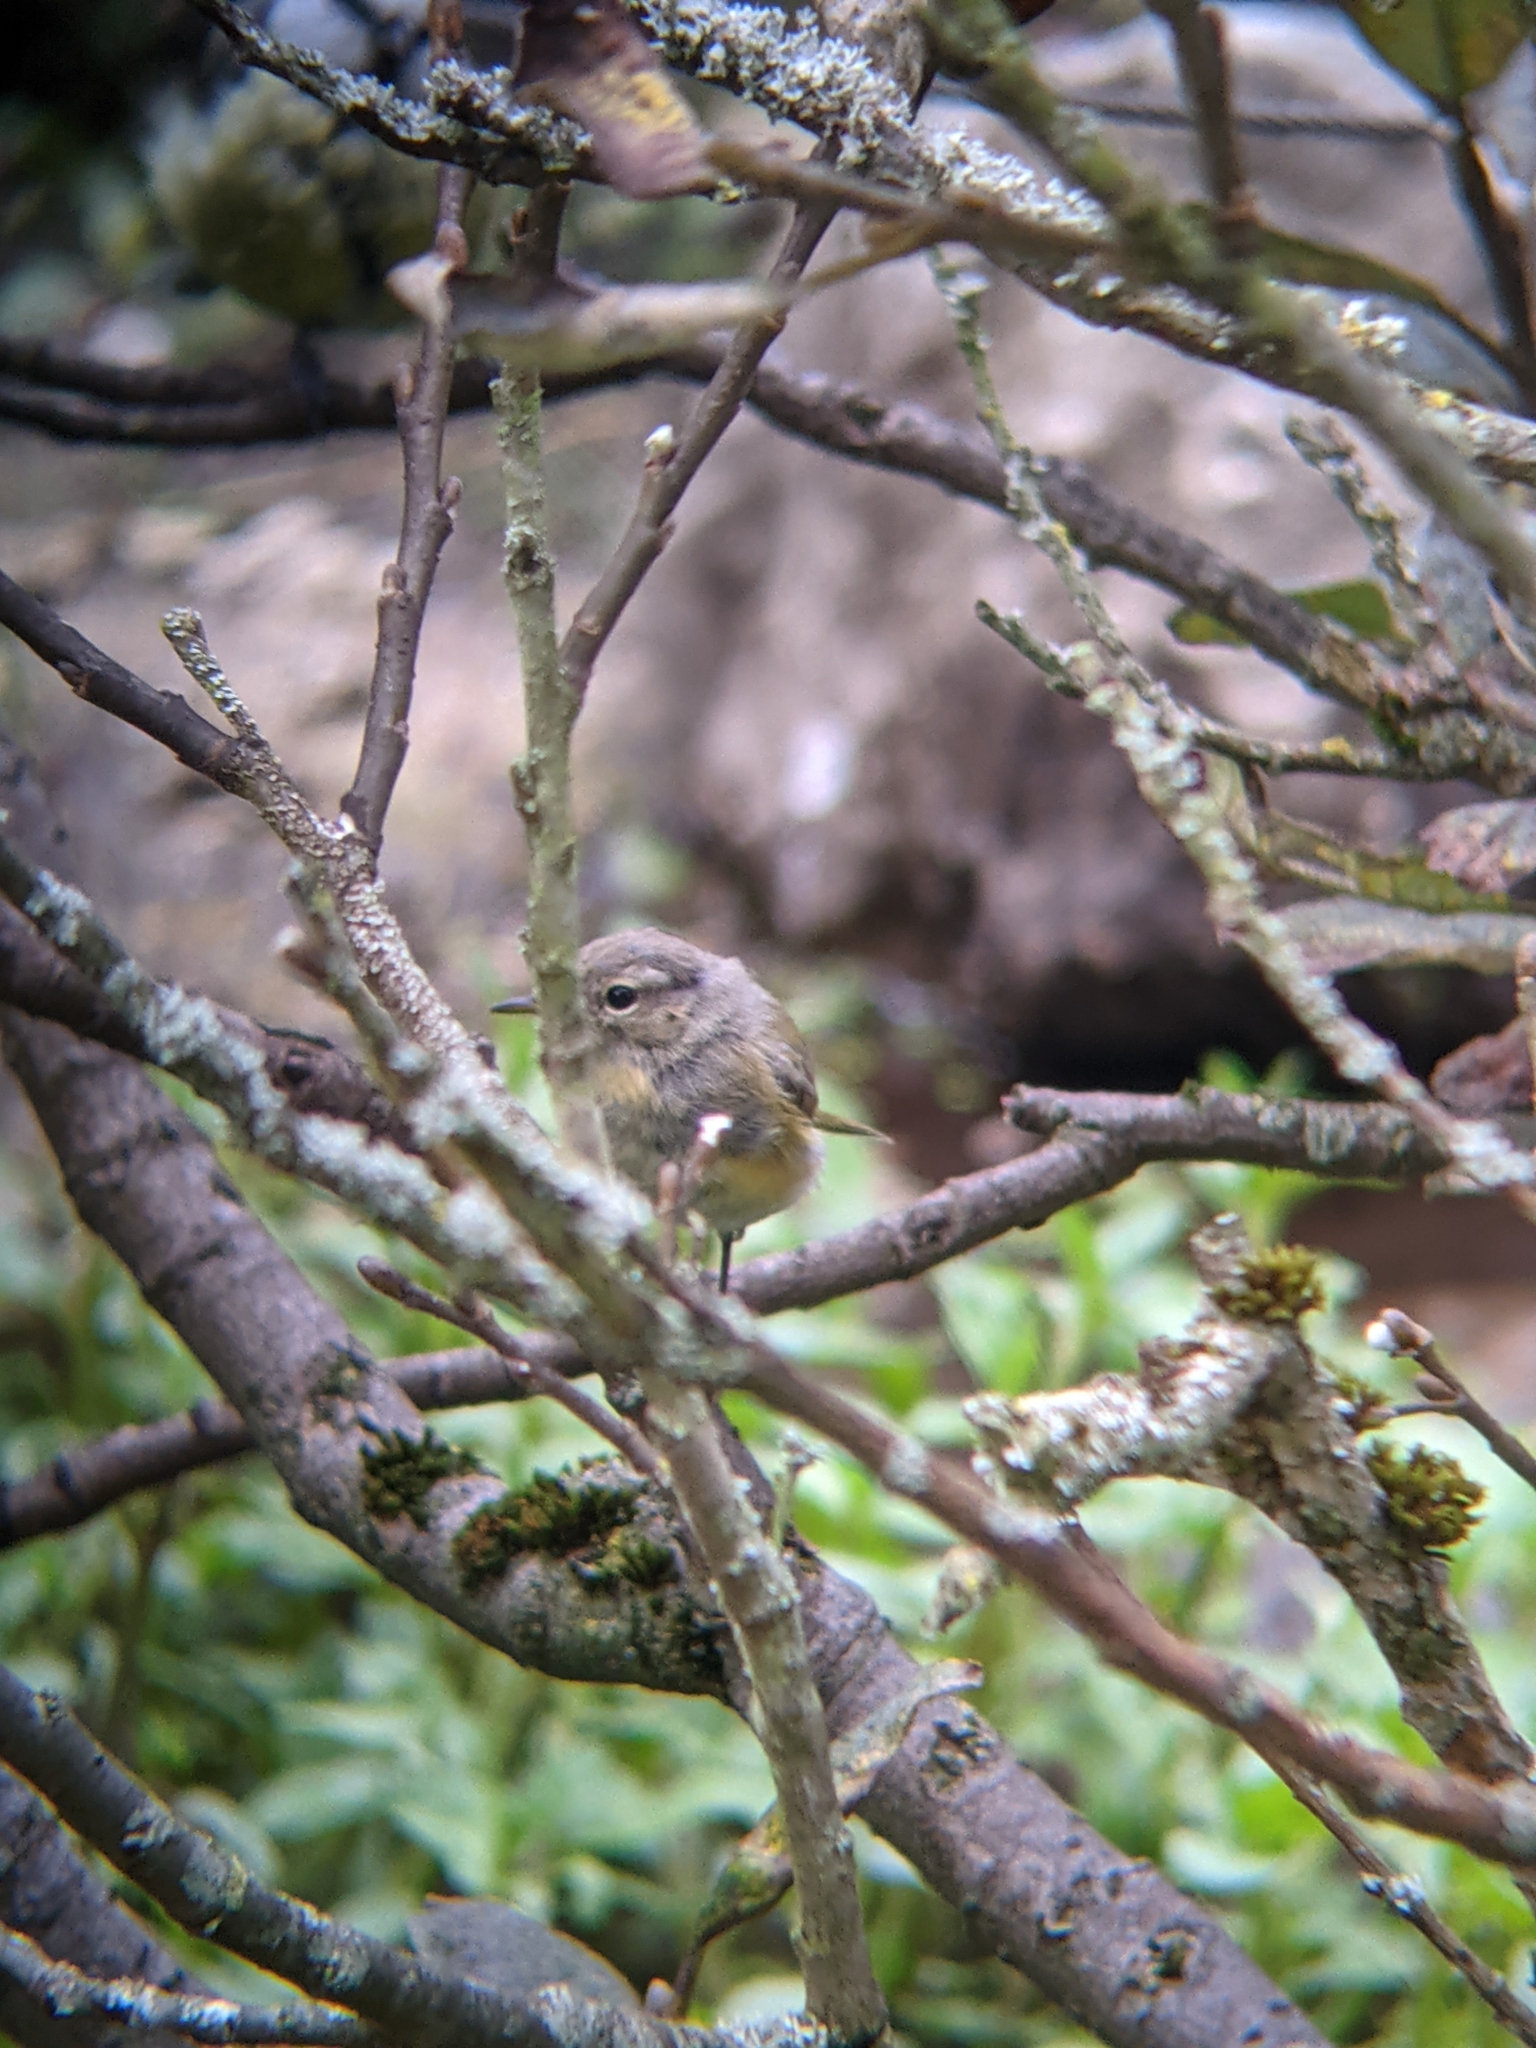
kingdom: Animalia
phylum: Chordata
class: Aves
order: Passeriformes
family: Phylloscopidae
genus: Phylloscopus
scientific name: Phylloscopus collybita
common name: Common chiffchaff
